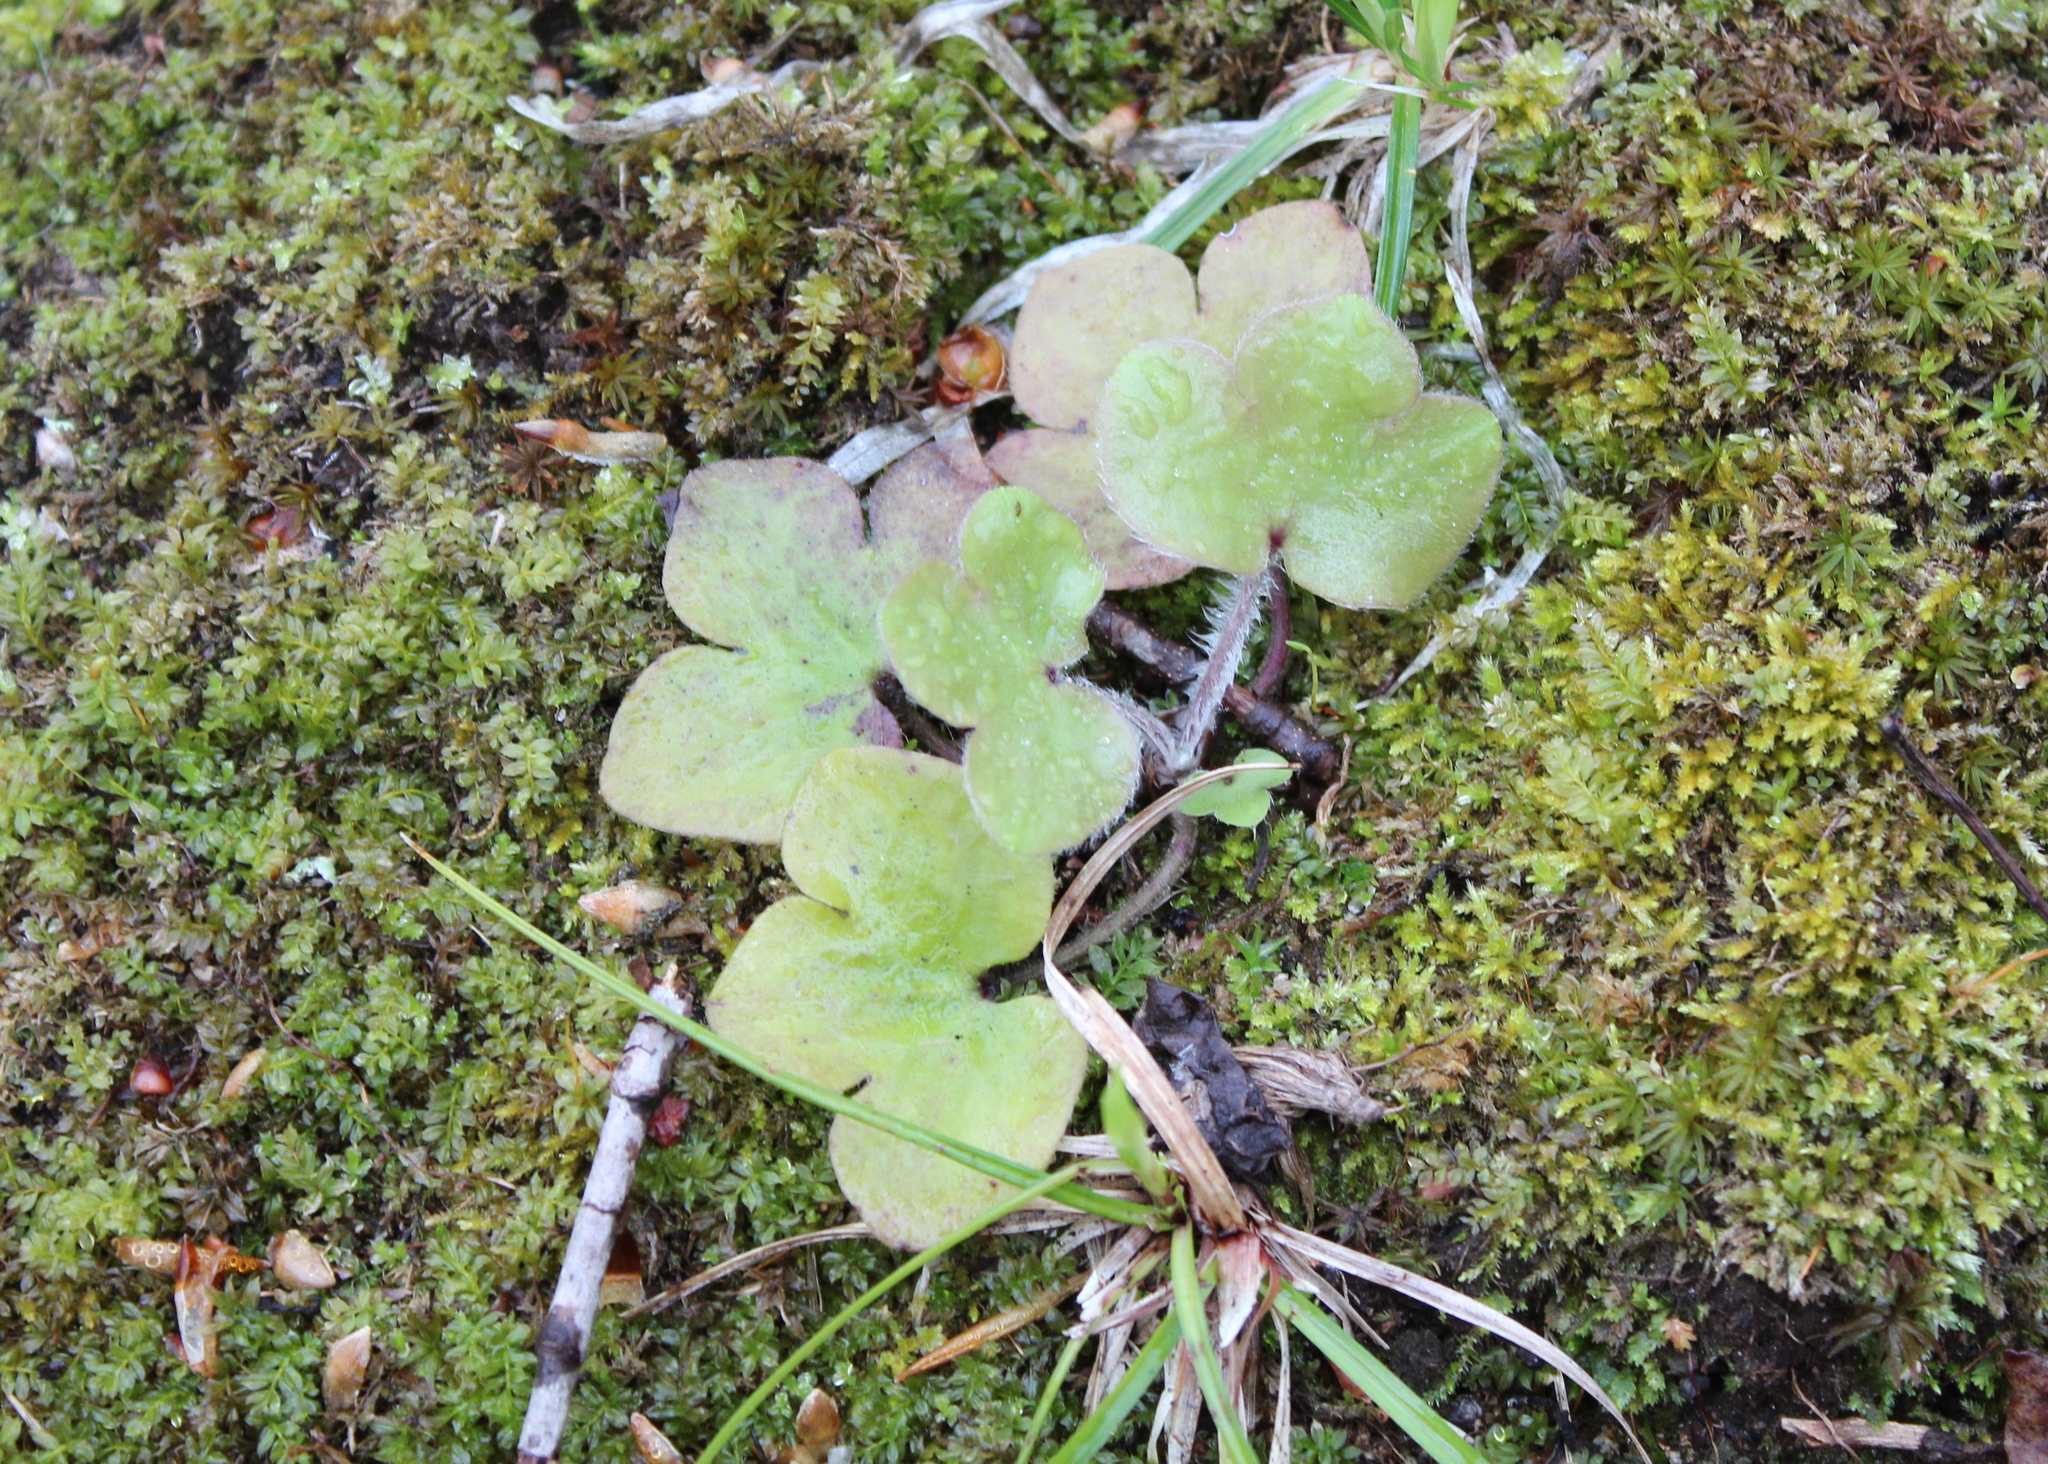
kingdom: Plantae
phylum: Tracheophyta
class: Magnoliopsida
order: Ranunculales
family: Ranunculaceae
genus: Hepatica
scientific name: Hepatica americana
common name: American hepatica
